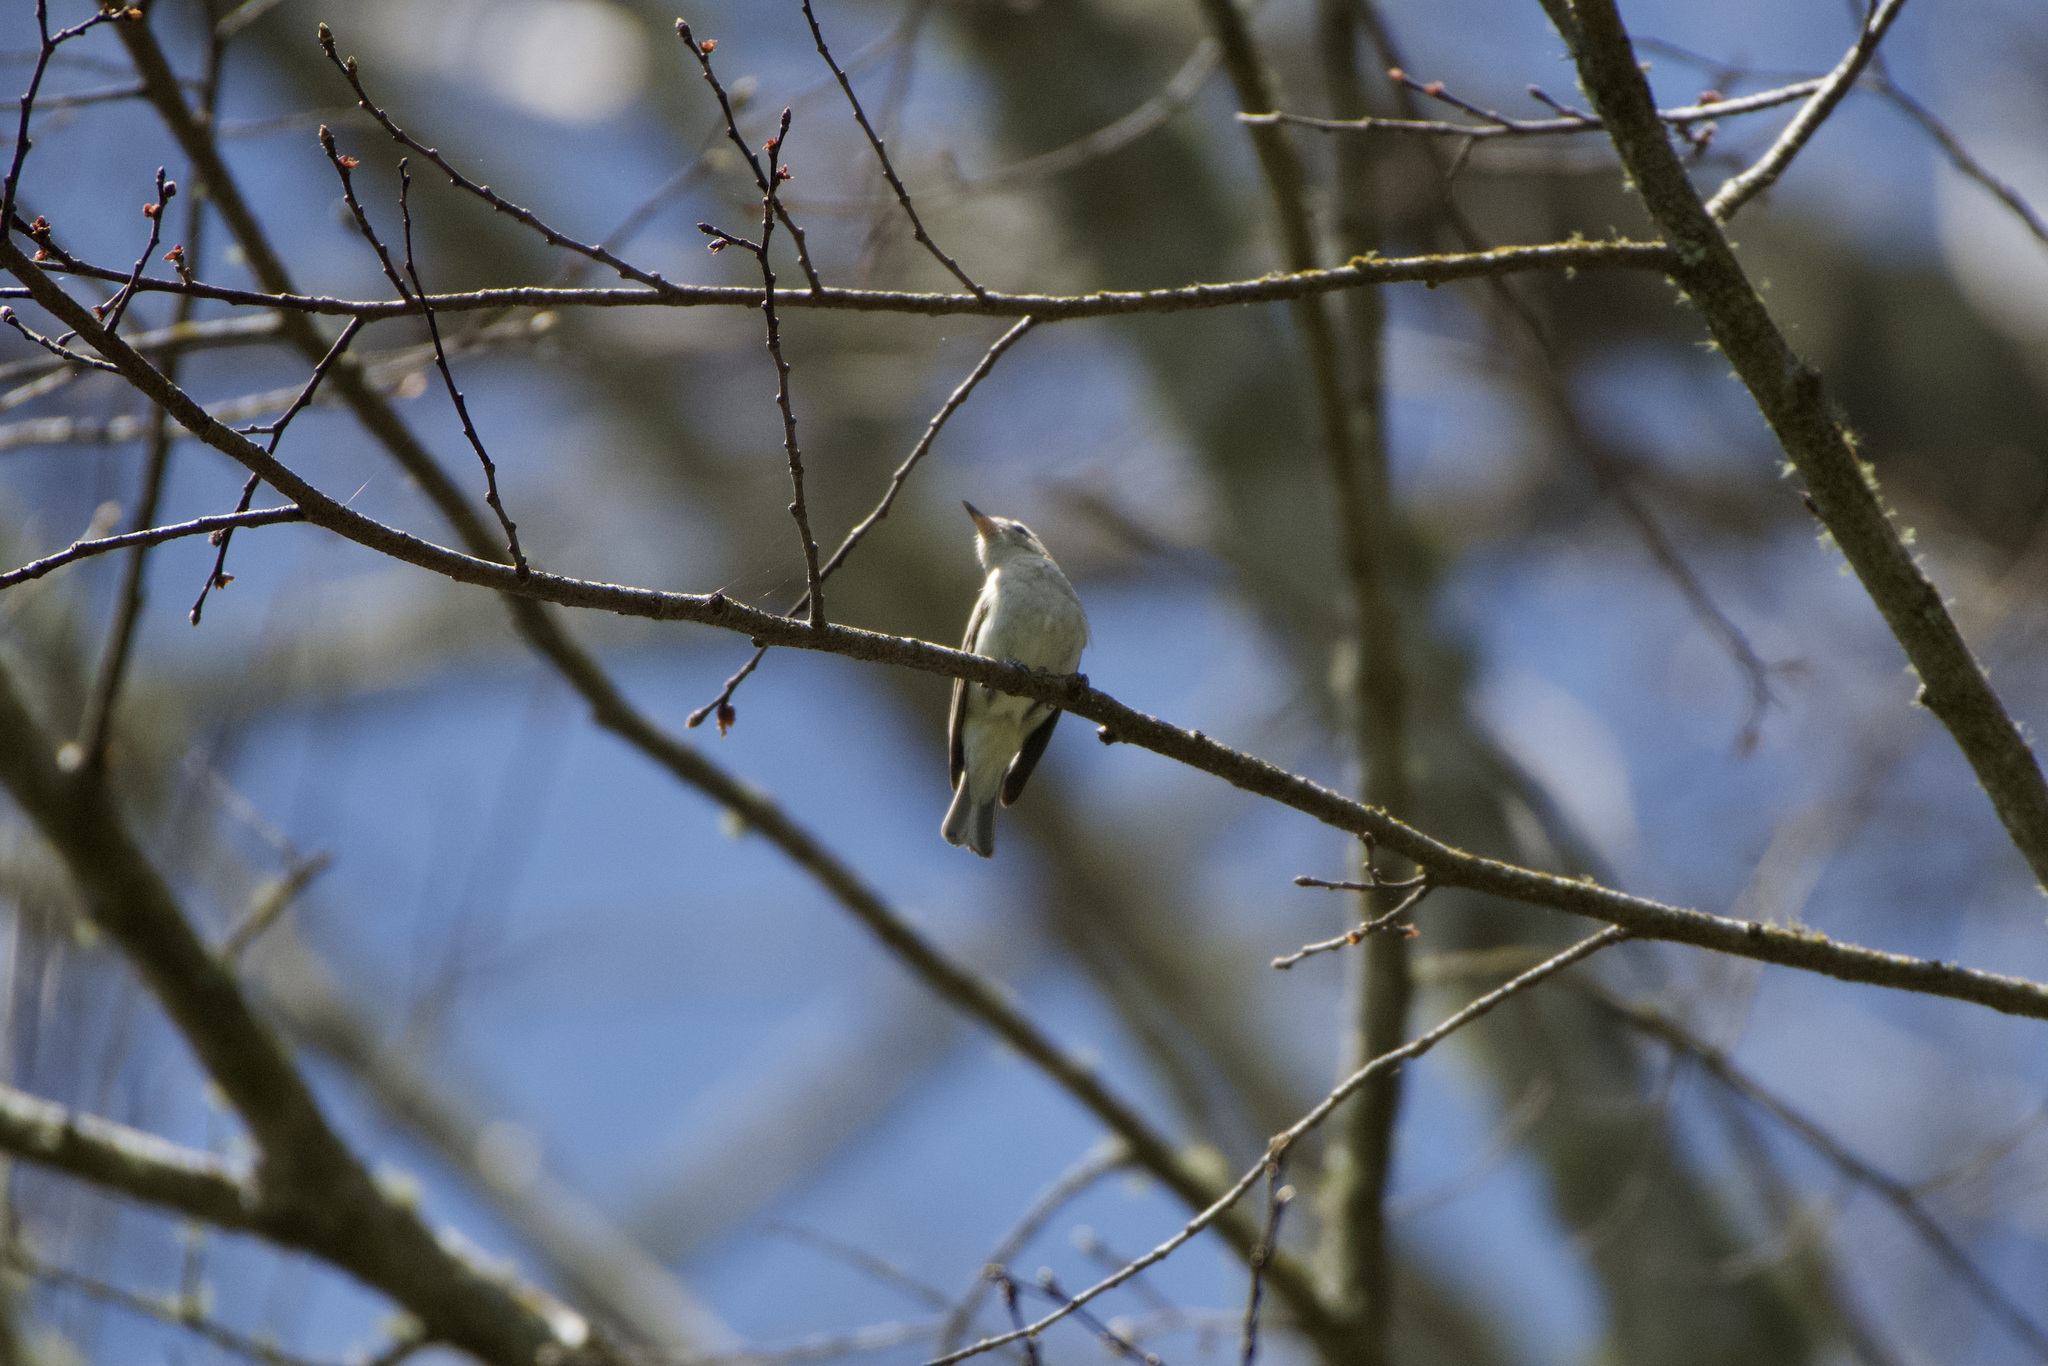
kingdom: Animalia
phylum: Chordata
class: Aves
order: Passeriformes
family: Vireonidae
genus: Vireo
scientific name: Vireo gilvus
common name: Warbling vireo
